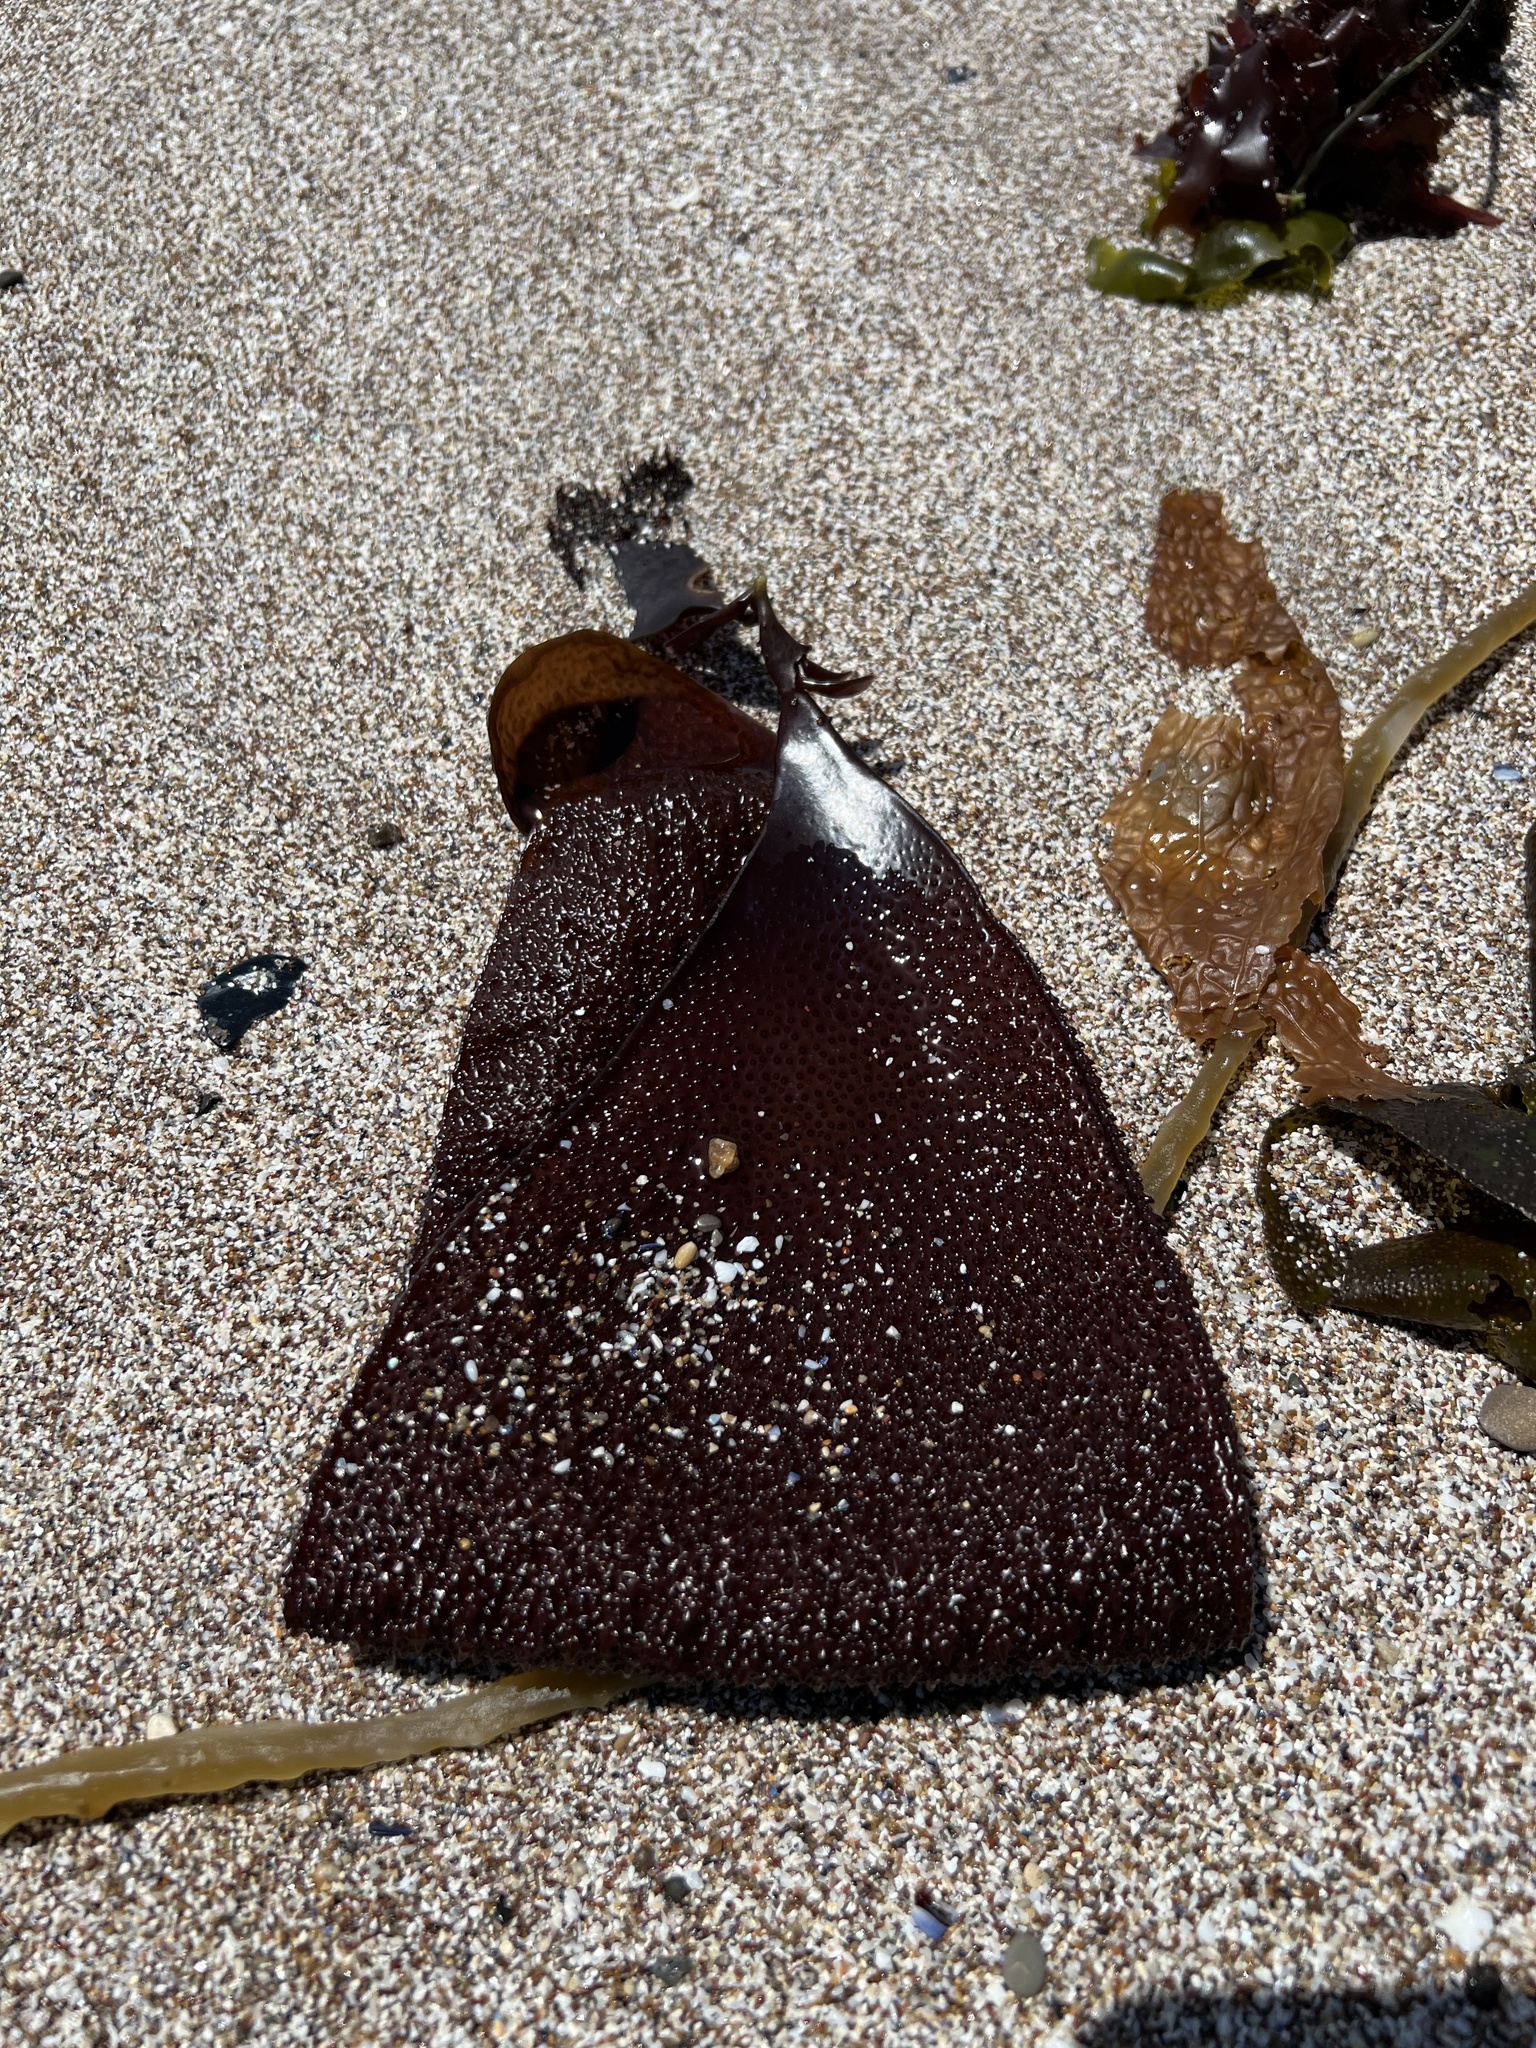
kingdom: Plantae
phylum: Rhodophyta
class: Florideophyceae
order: Gigartinales
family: Gigartinaceae
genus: Chondracanthus
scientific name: Chondracanthus exasperatus
